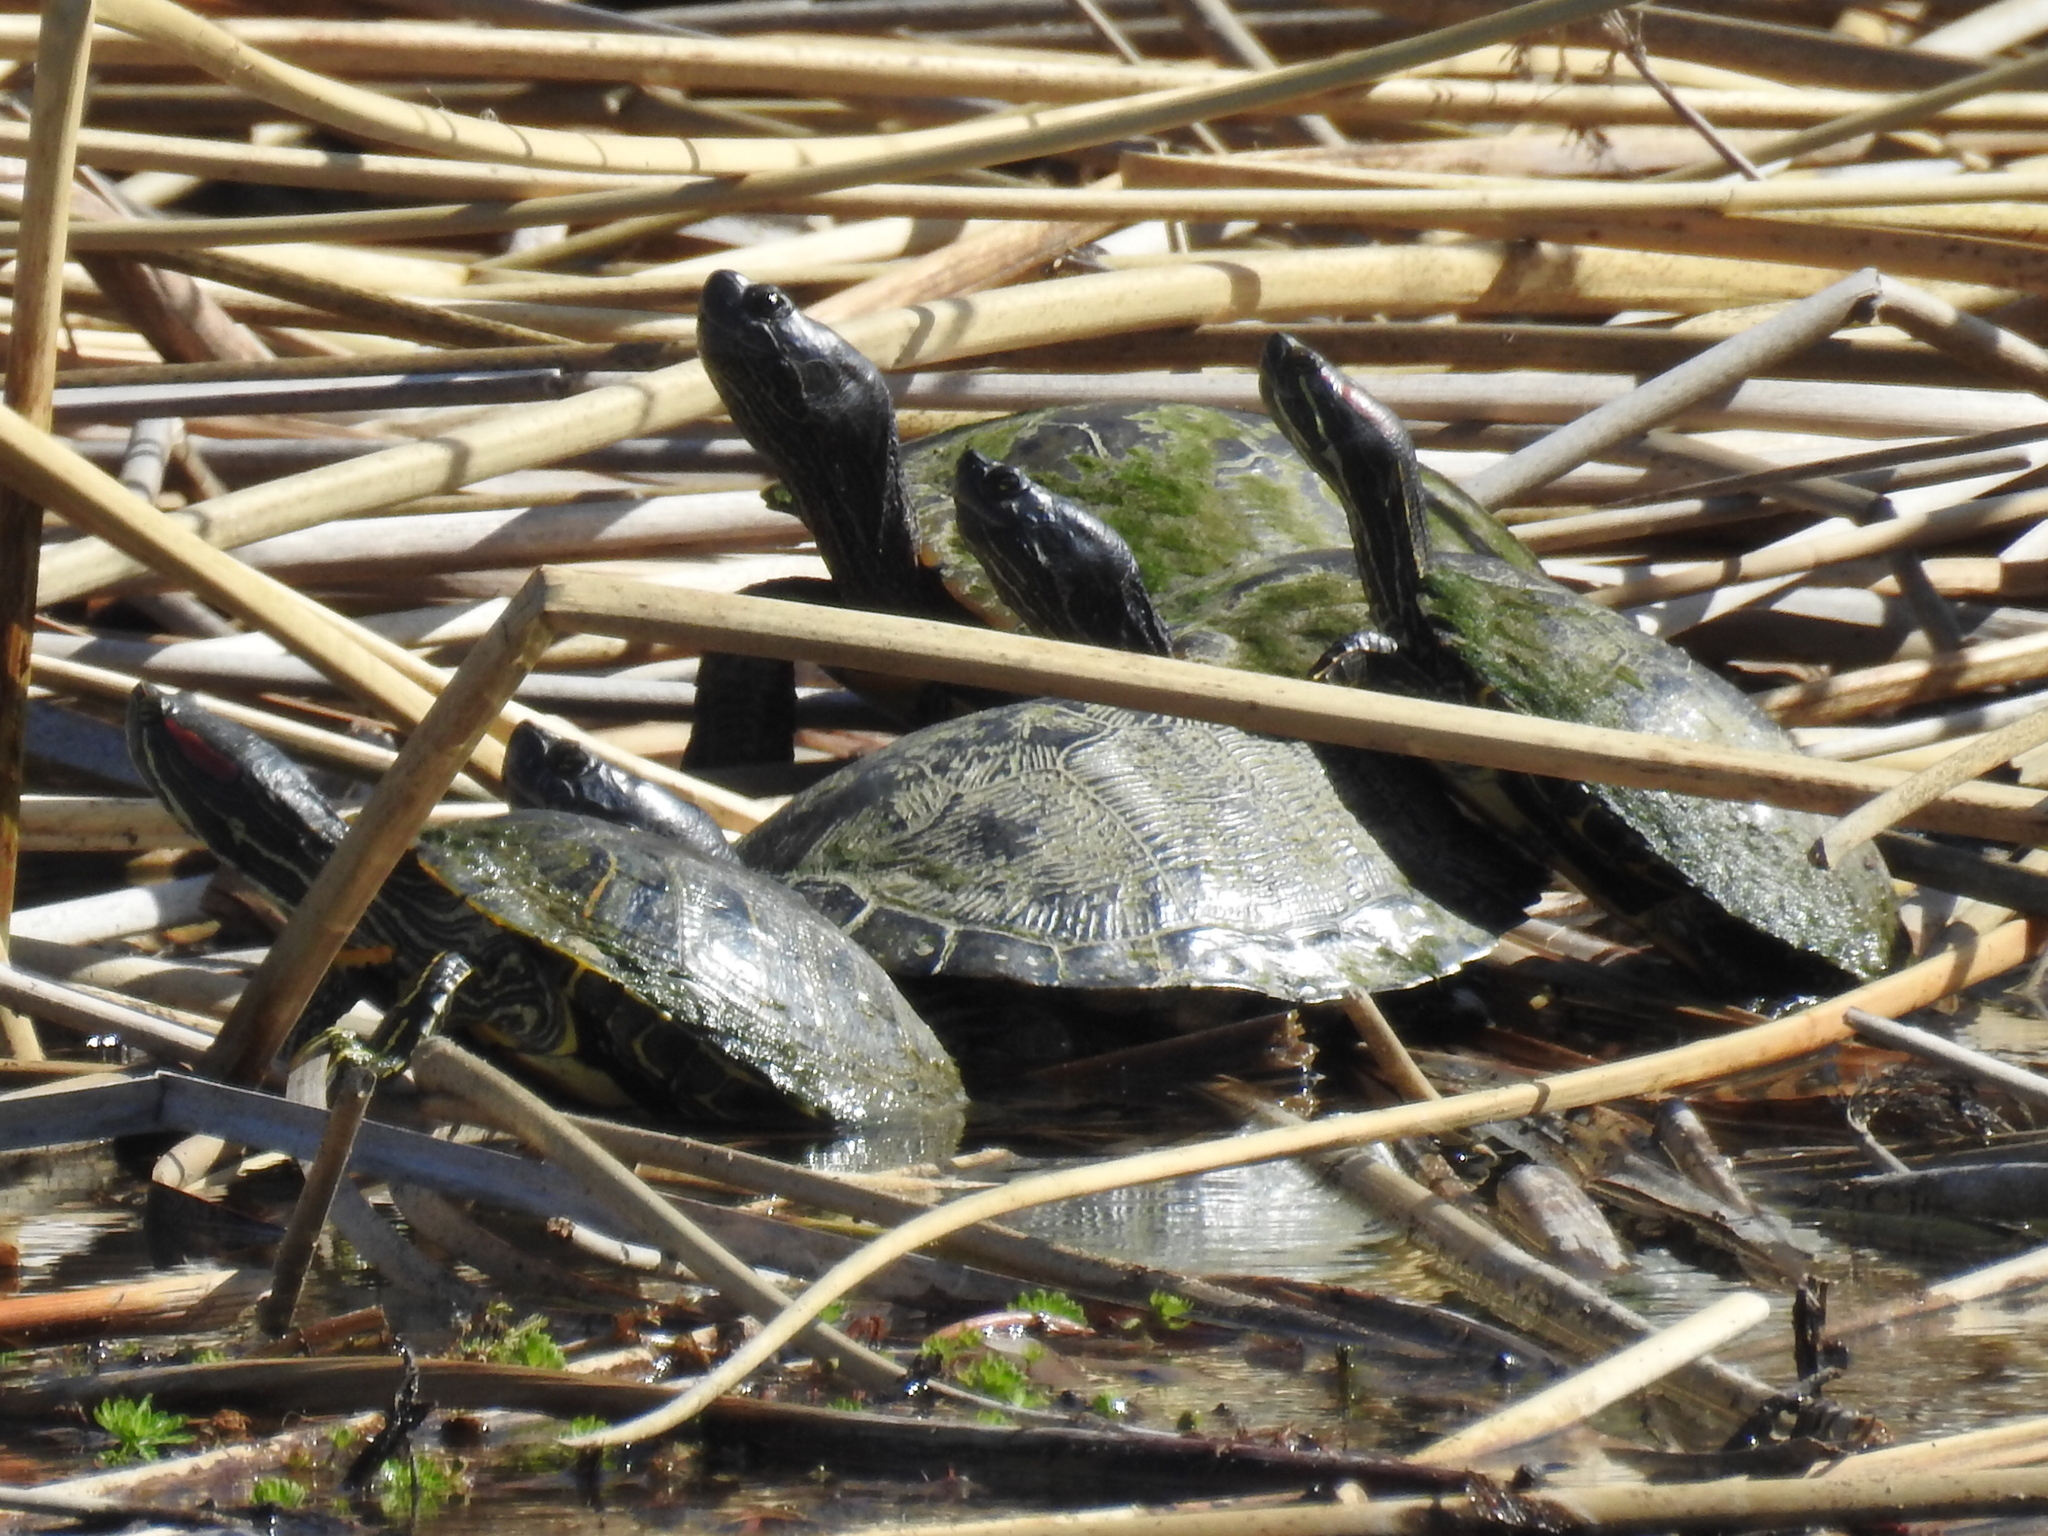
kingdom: Animalia
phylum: Chordata
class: Testudines
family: Emydidae
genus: Trachemys
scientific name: Trachemys scripta
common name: Slider
